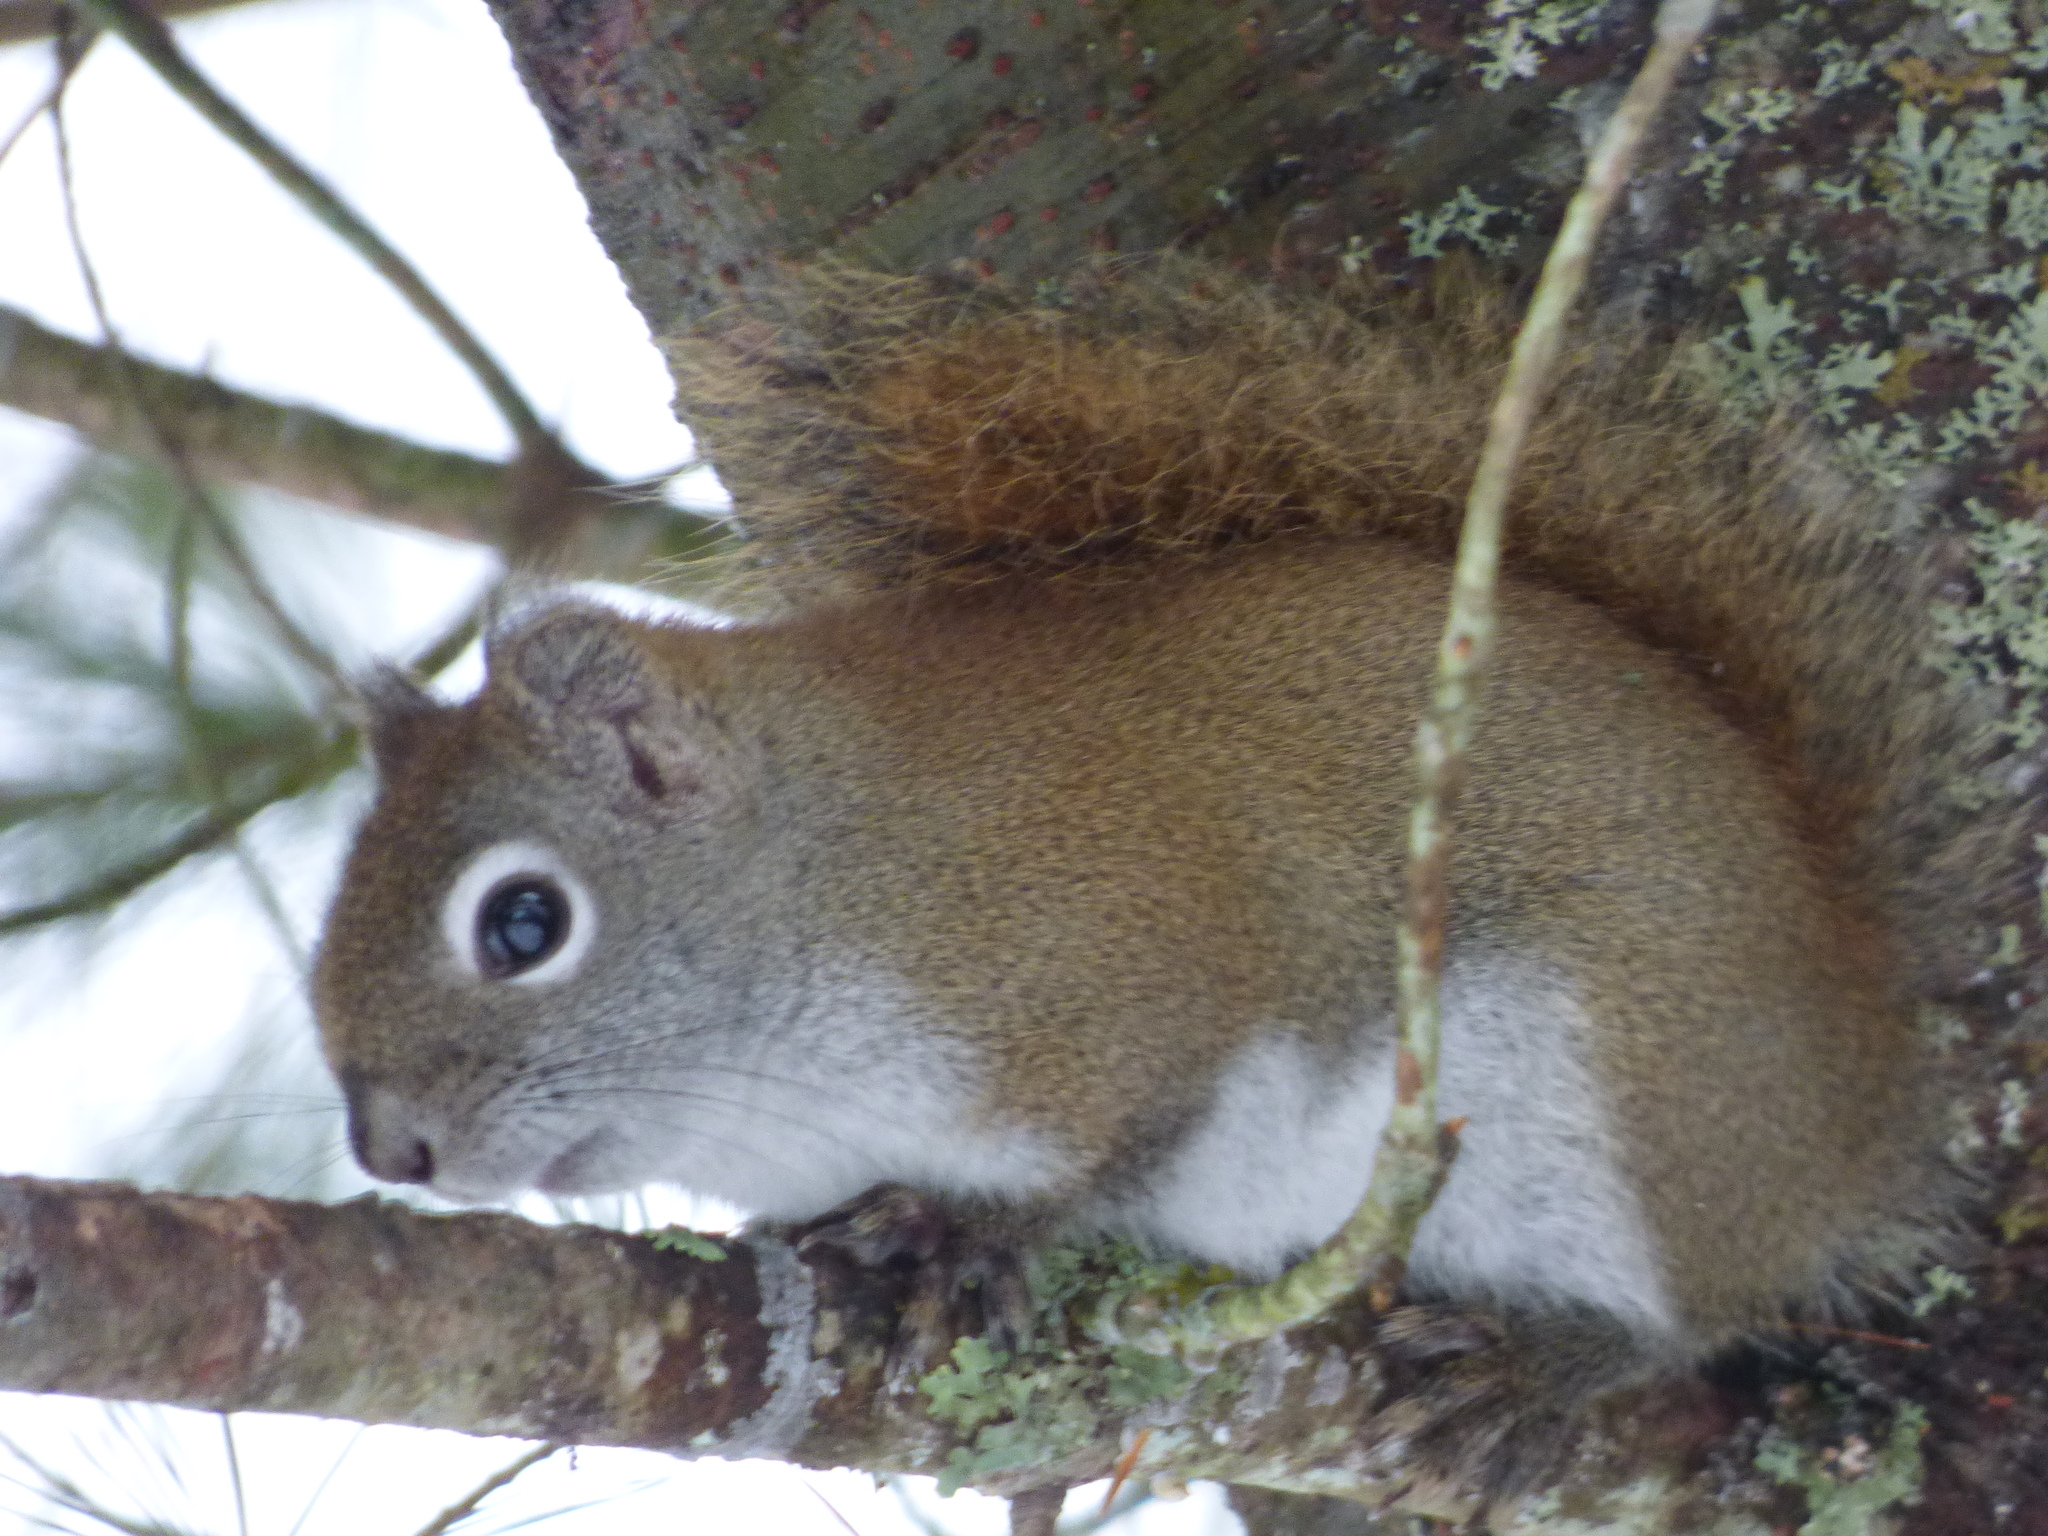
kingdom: Animalia
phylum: Chordata
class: Mammalia
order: Rodentia
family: Sciuridae
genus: Tamiasciurus
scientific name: Tamiasciurus hudsonicus
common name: Red squirrel
